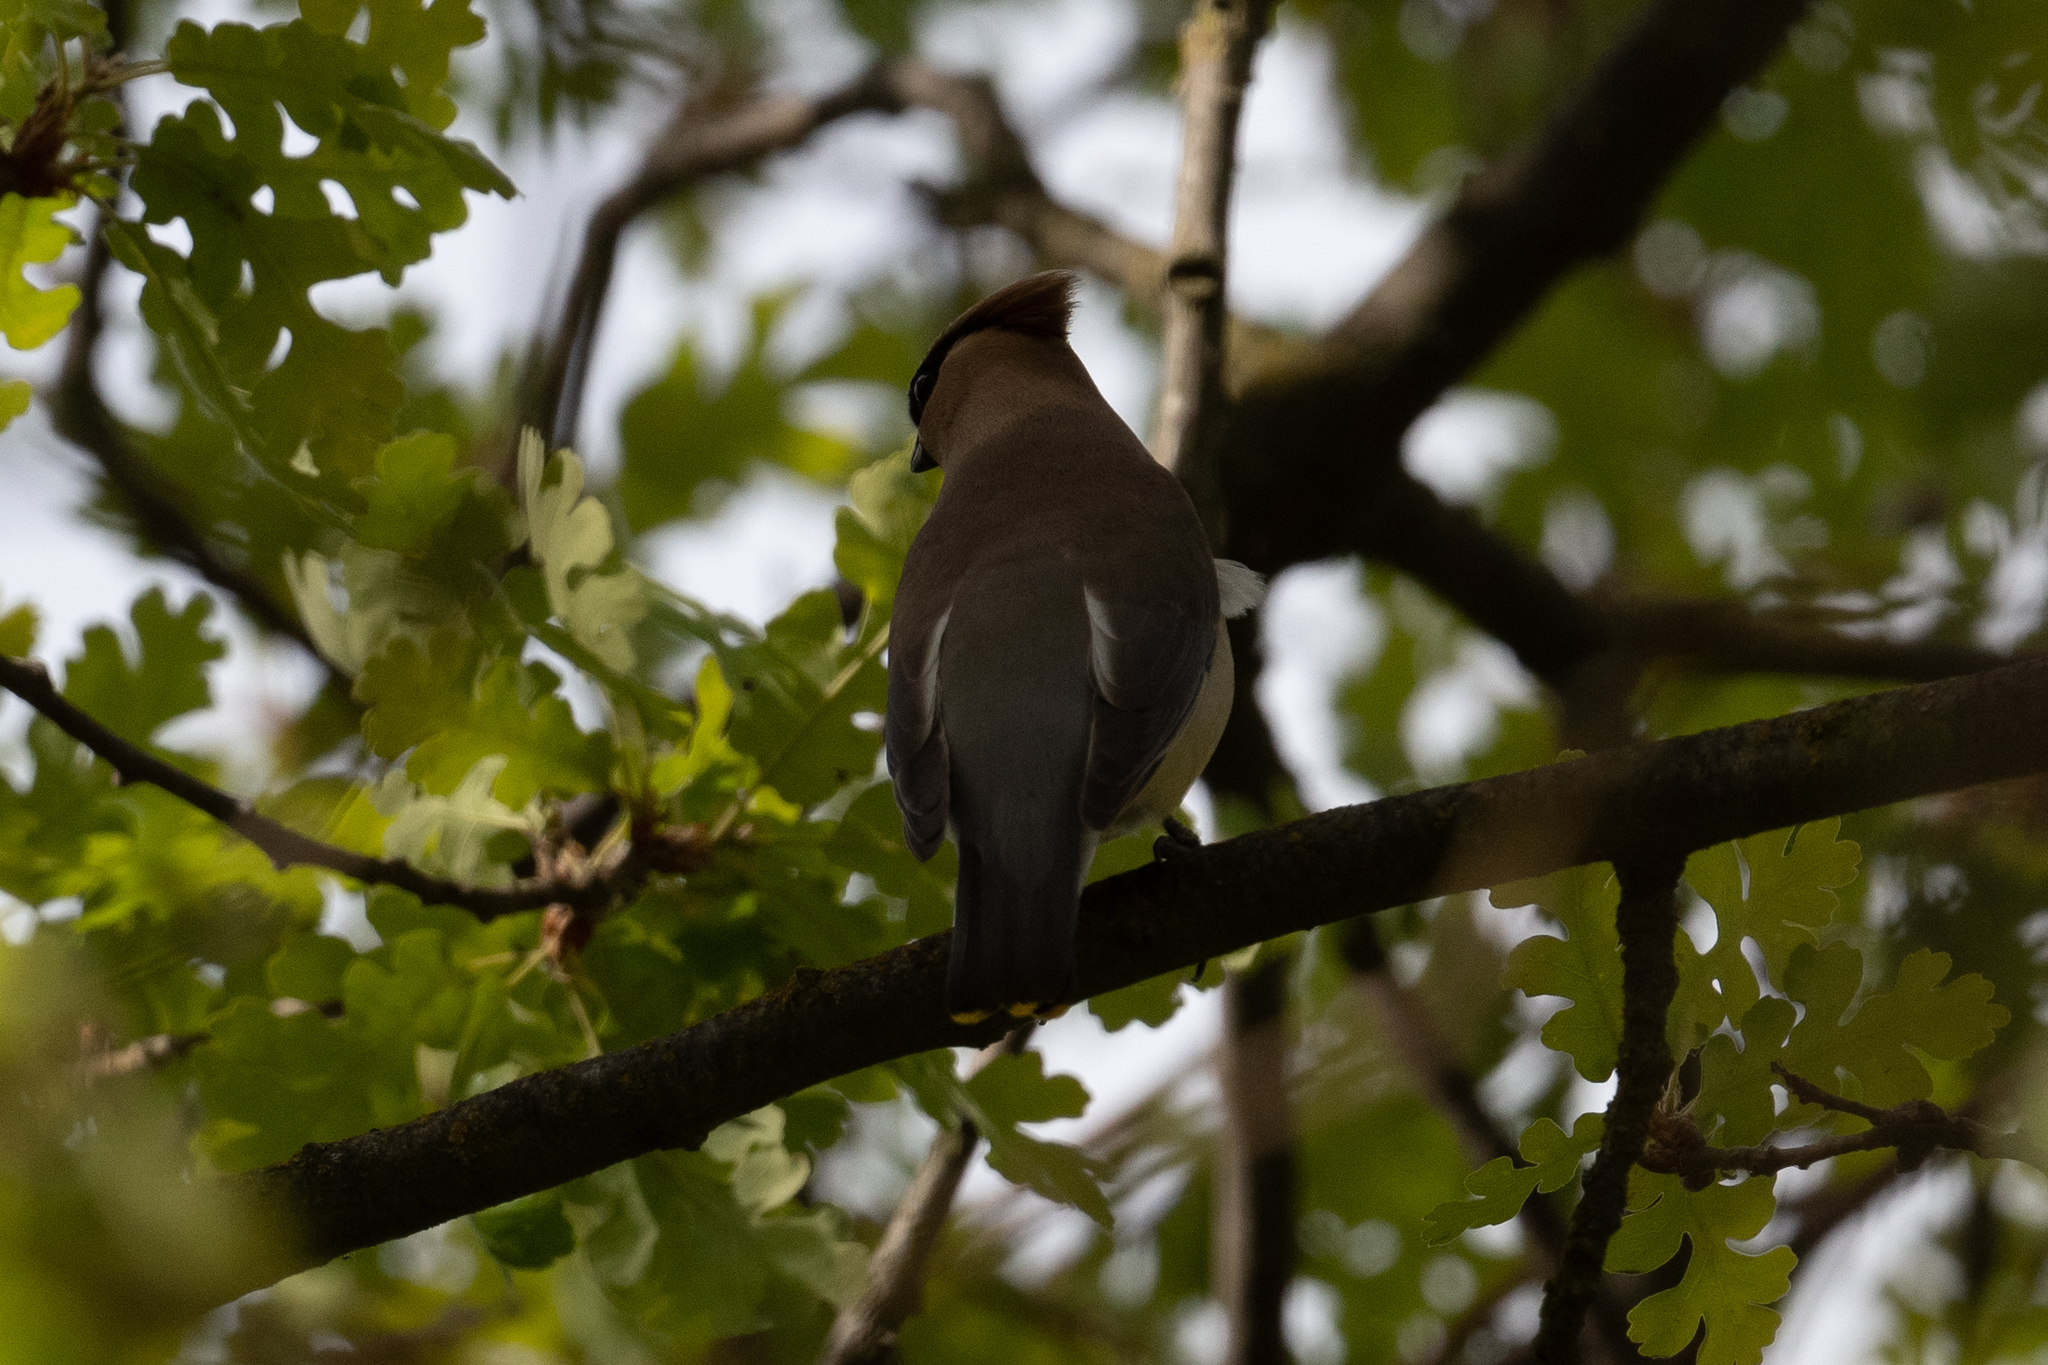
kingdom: Animalia
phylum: Chordata
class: Aves
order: Passeriformes
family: Bombycillidae
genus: Bombycilla
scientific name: Bombycilla cedrorum
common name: Cedar waxwing
